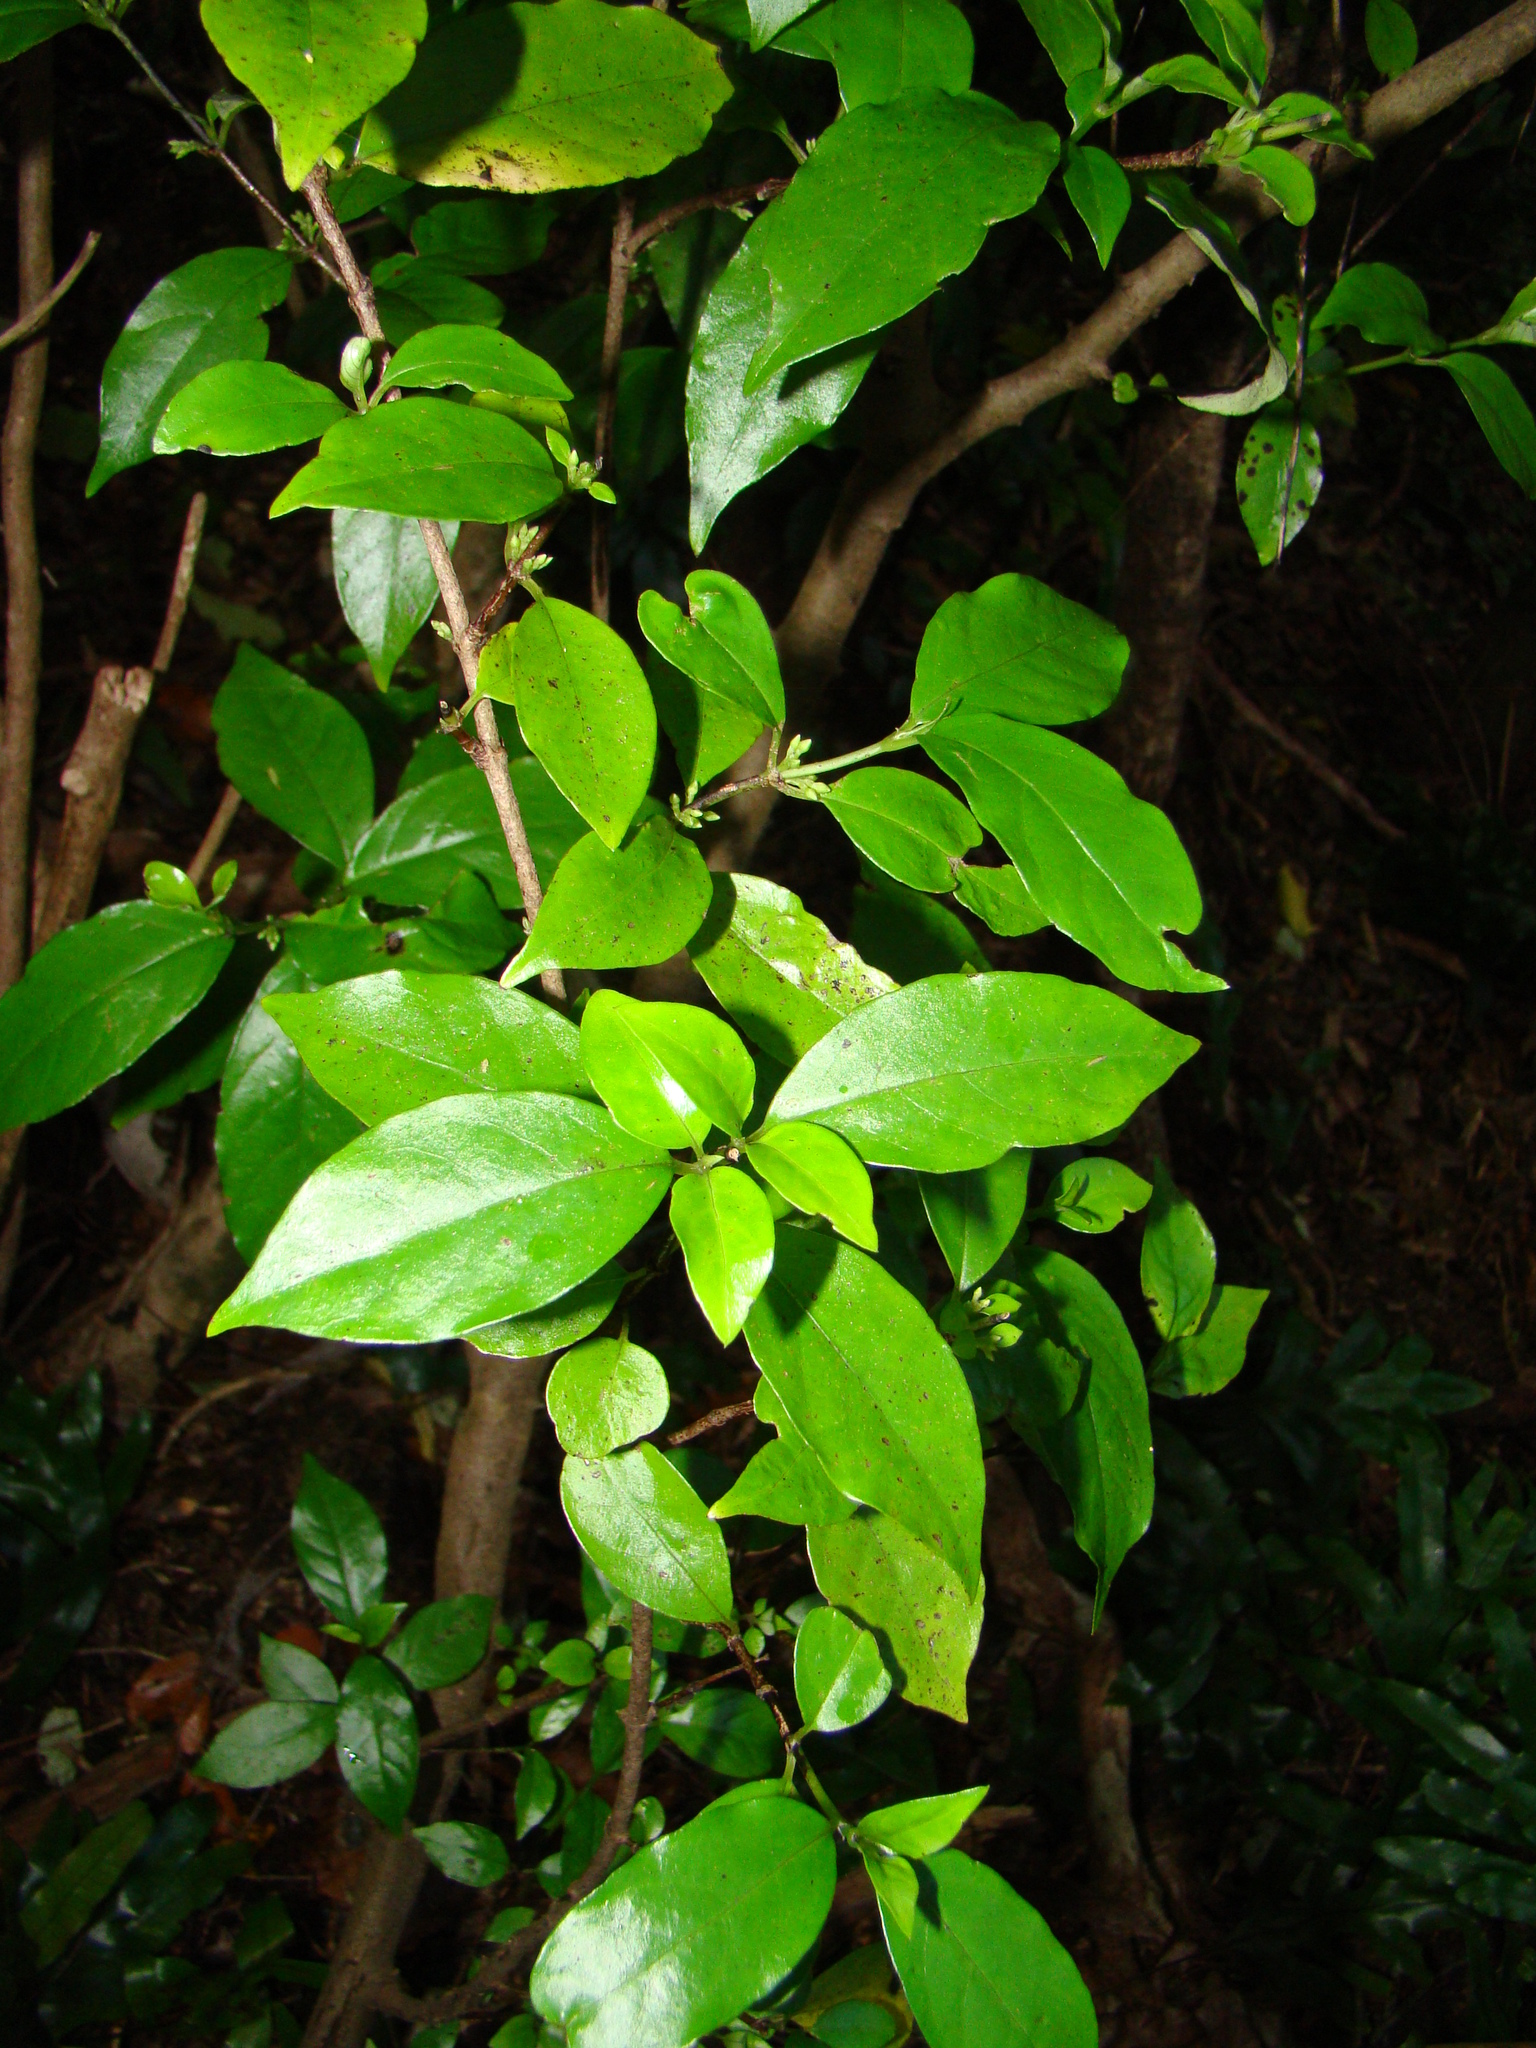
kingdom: Plantae
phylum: Tracheophyta
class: Magnoliopsida
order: Gentianales
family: Loganiaceae
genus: Geniostoma
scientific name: Geniostoma ligustrifolium
